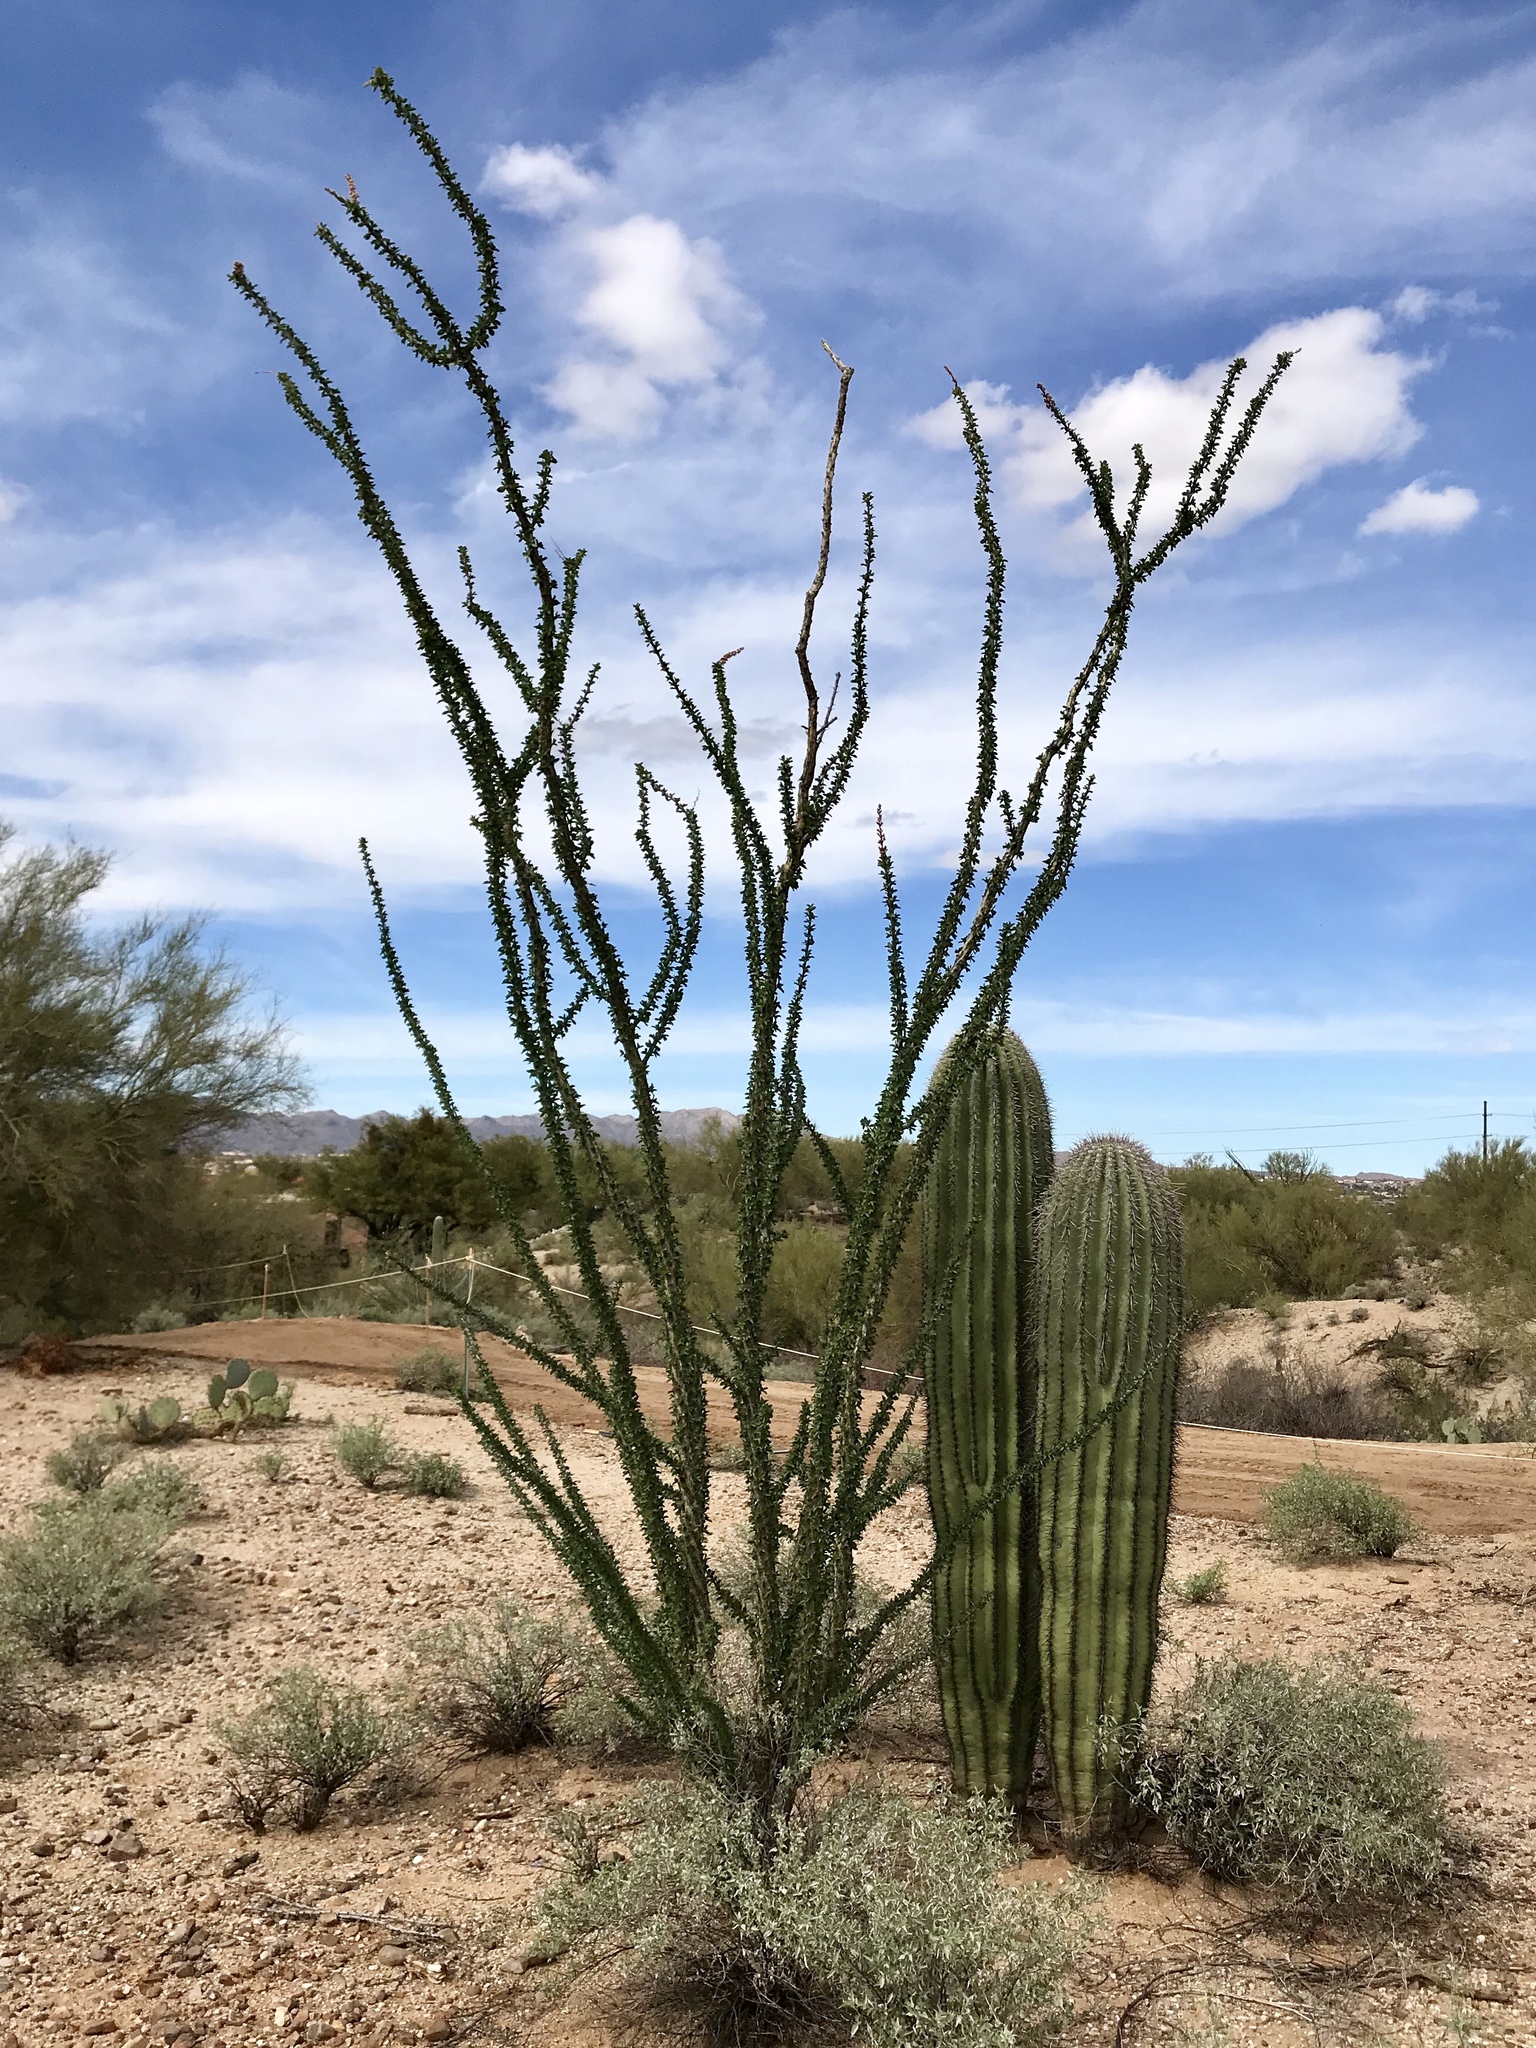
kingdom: Plantae
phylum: Tracheophyta
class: Magnoliopsida
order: Ericales
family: Fouquieriaceae
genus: Fouquieria
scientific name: Fouquieria splendens
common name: Vine-cactus
